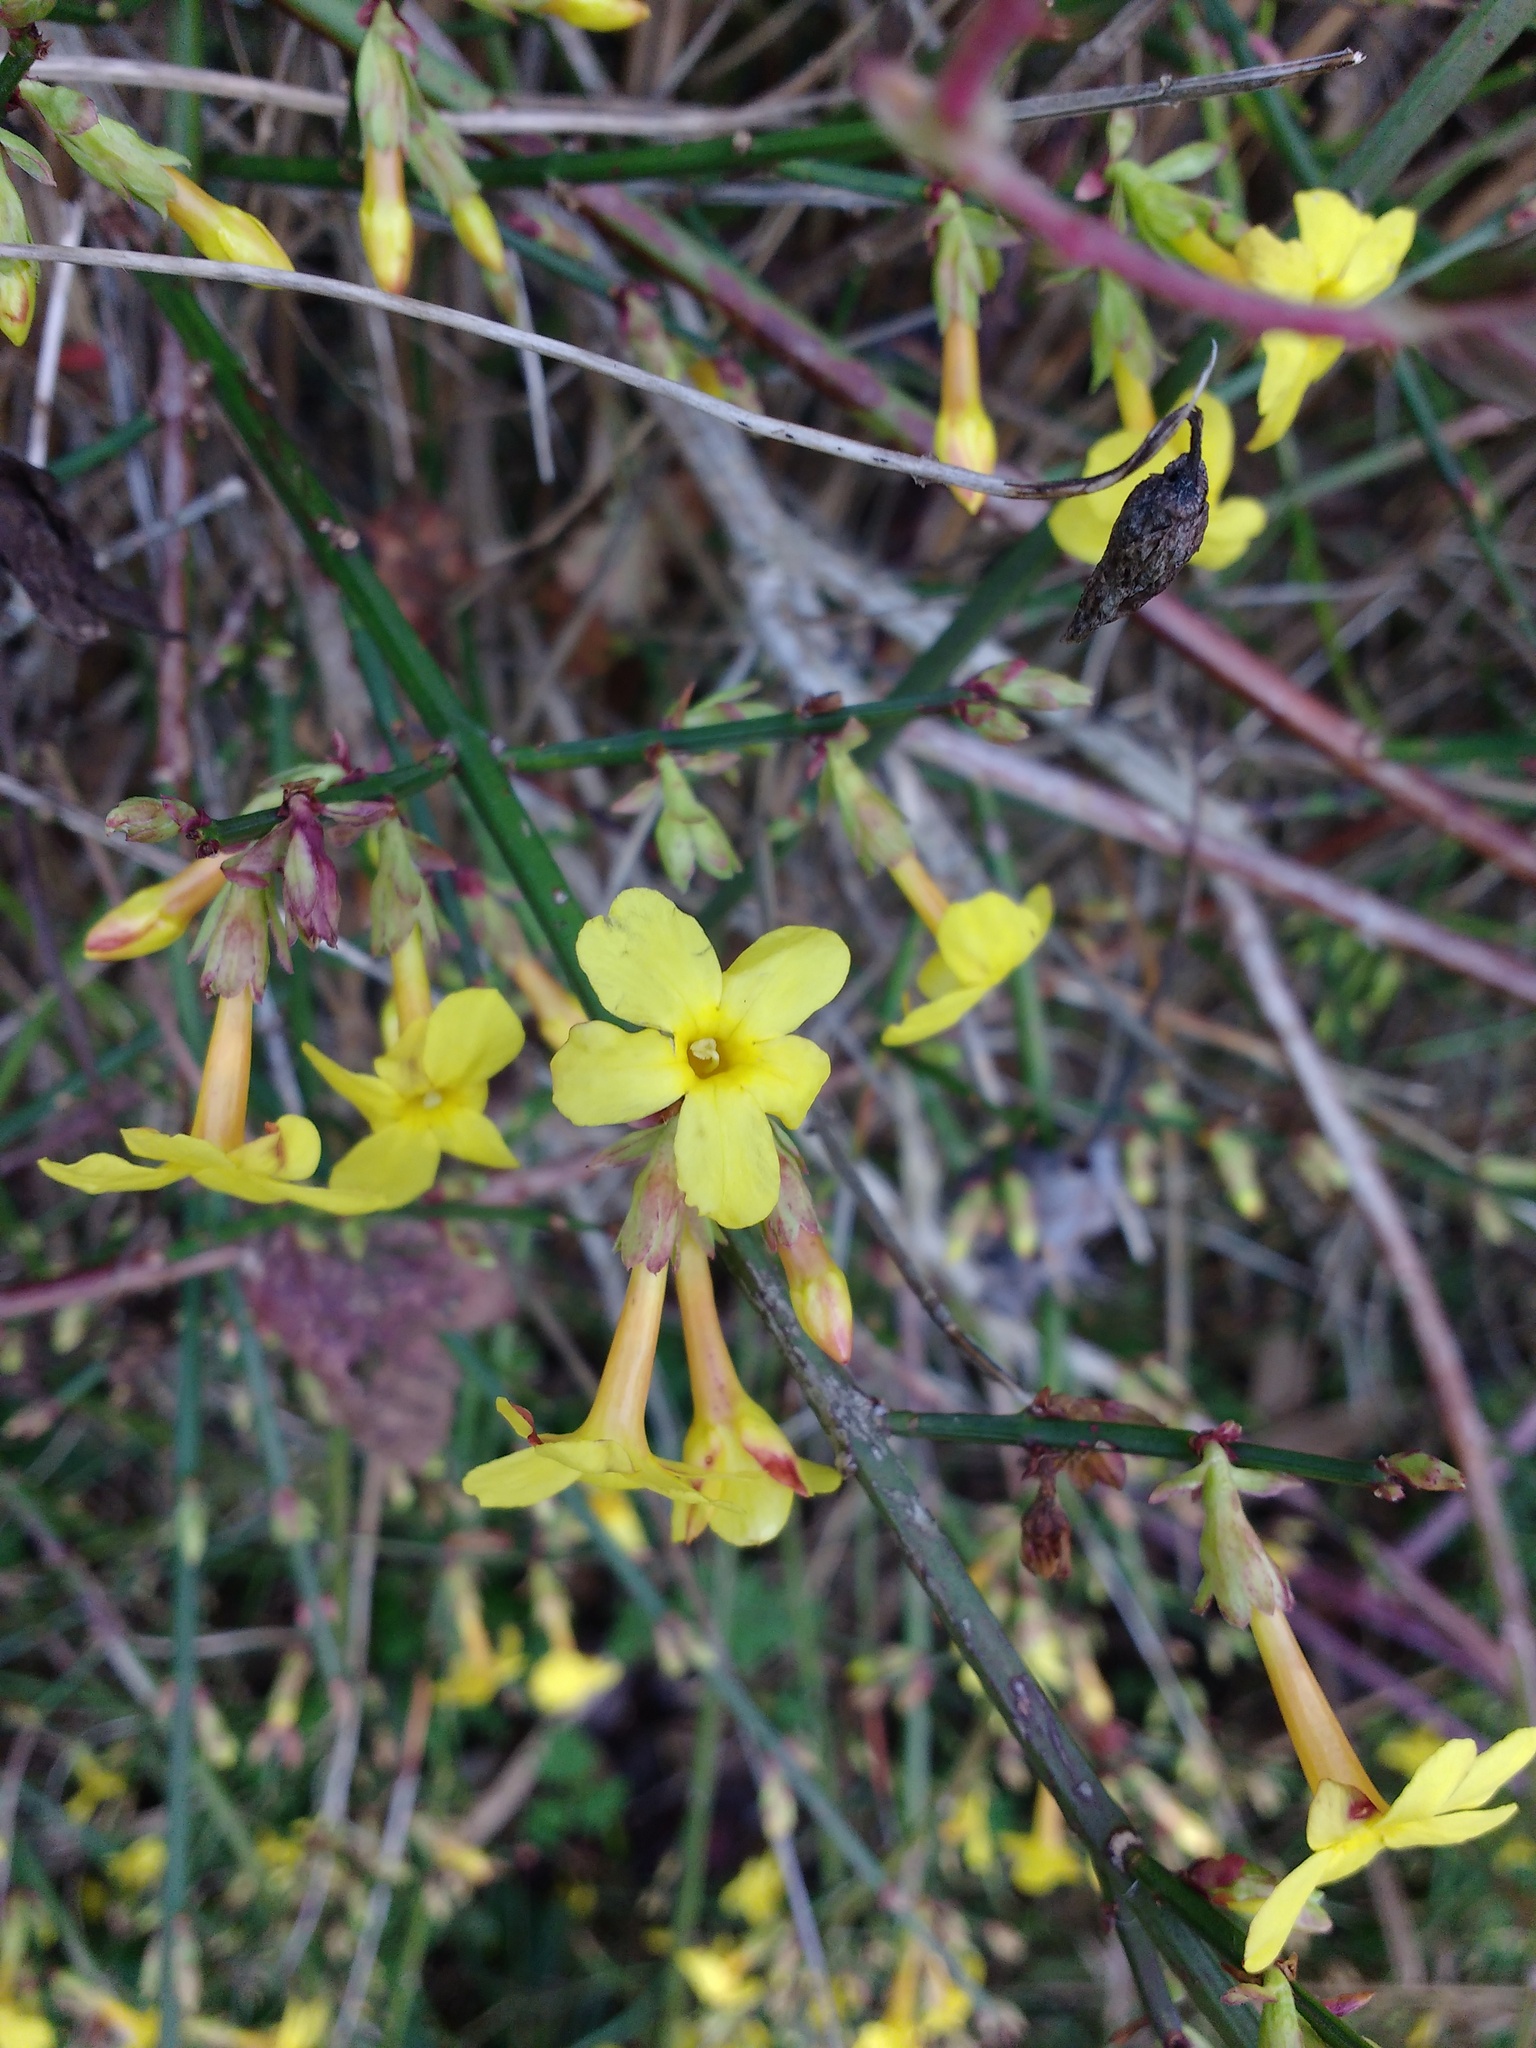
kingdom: Plantae
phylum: Tracheophyta
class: Magnoliopsida
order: Lamiales
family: Oleaceae
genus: Jasminum
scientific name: Jasminum nudiflorum
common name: Winter jasmine
